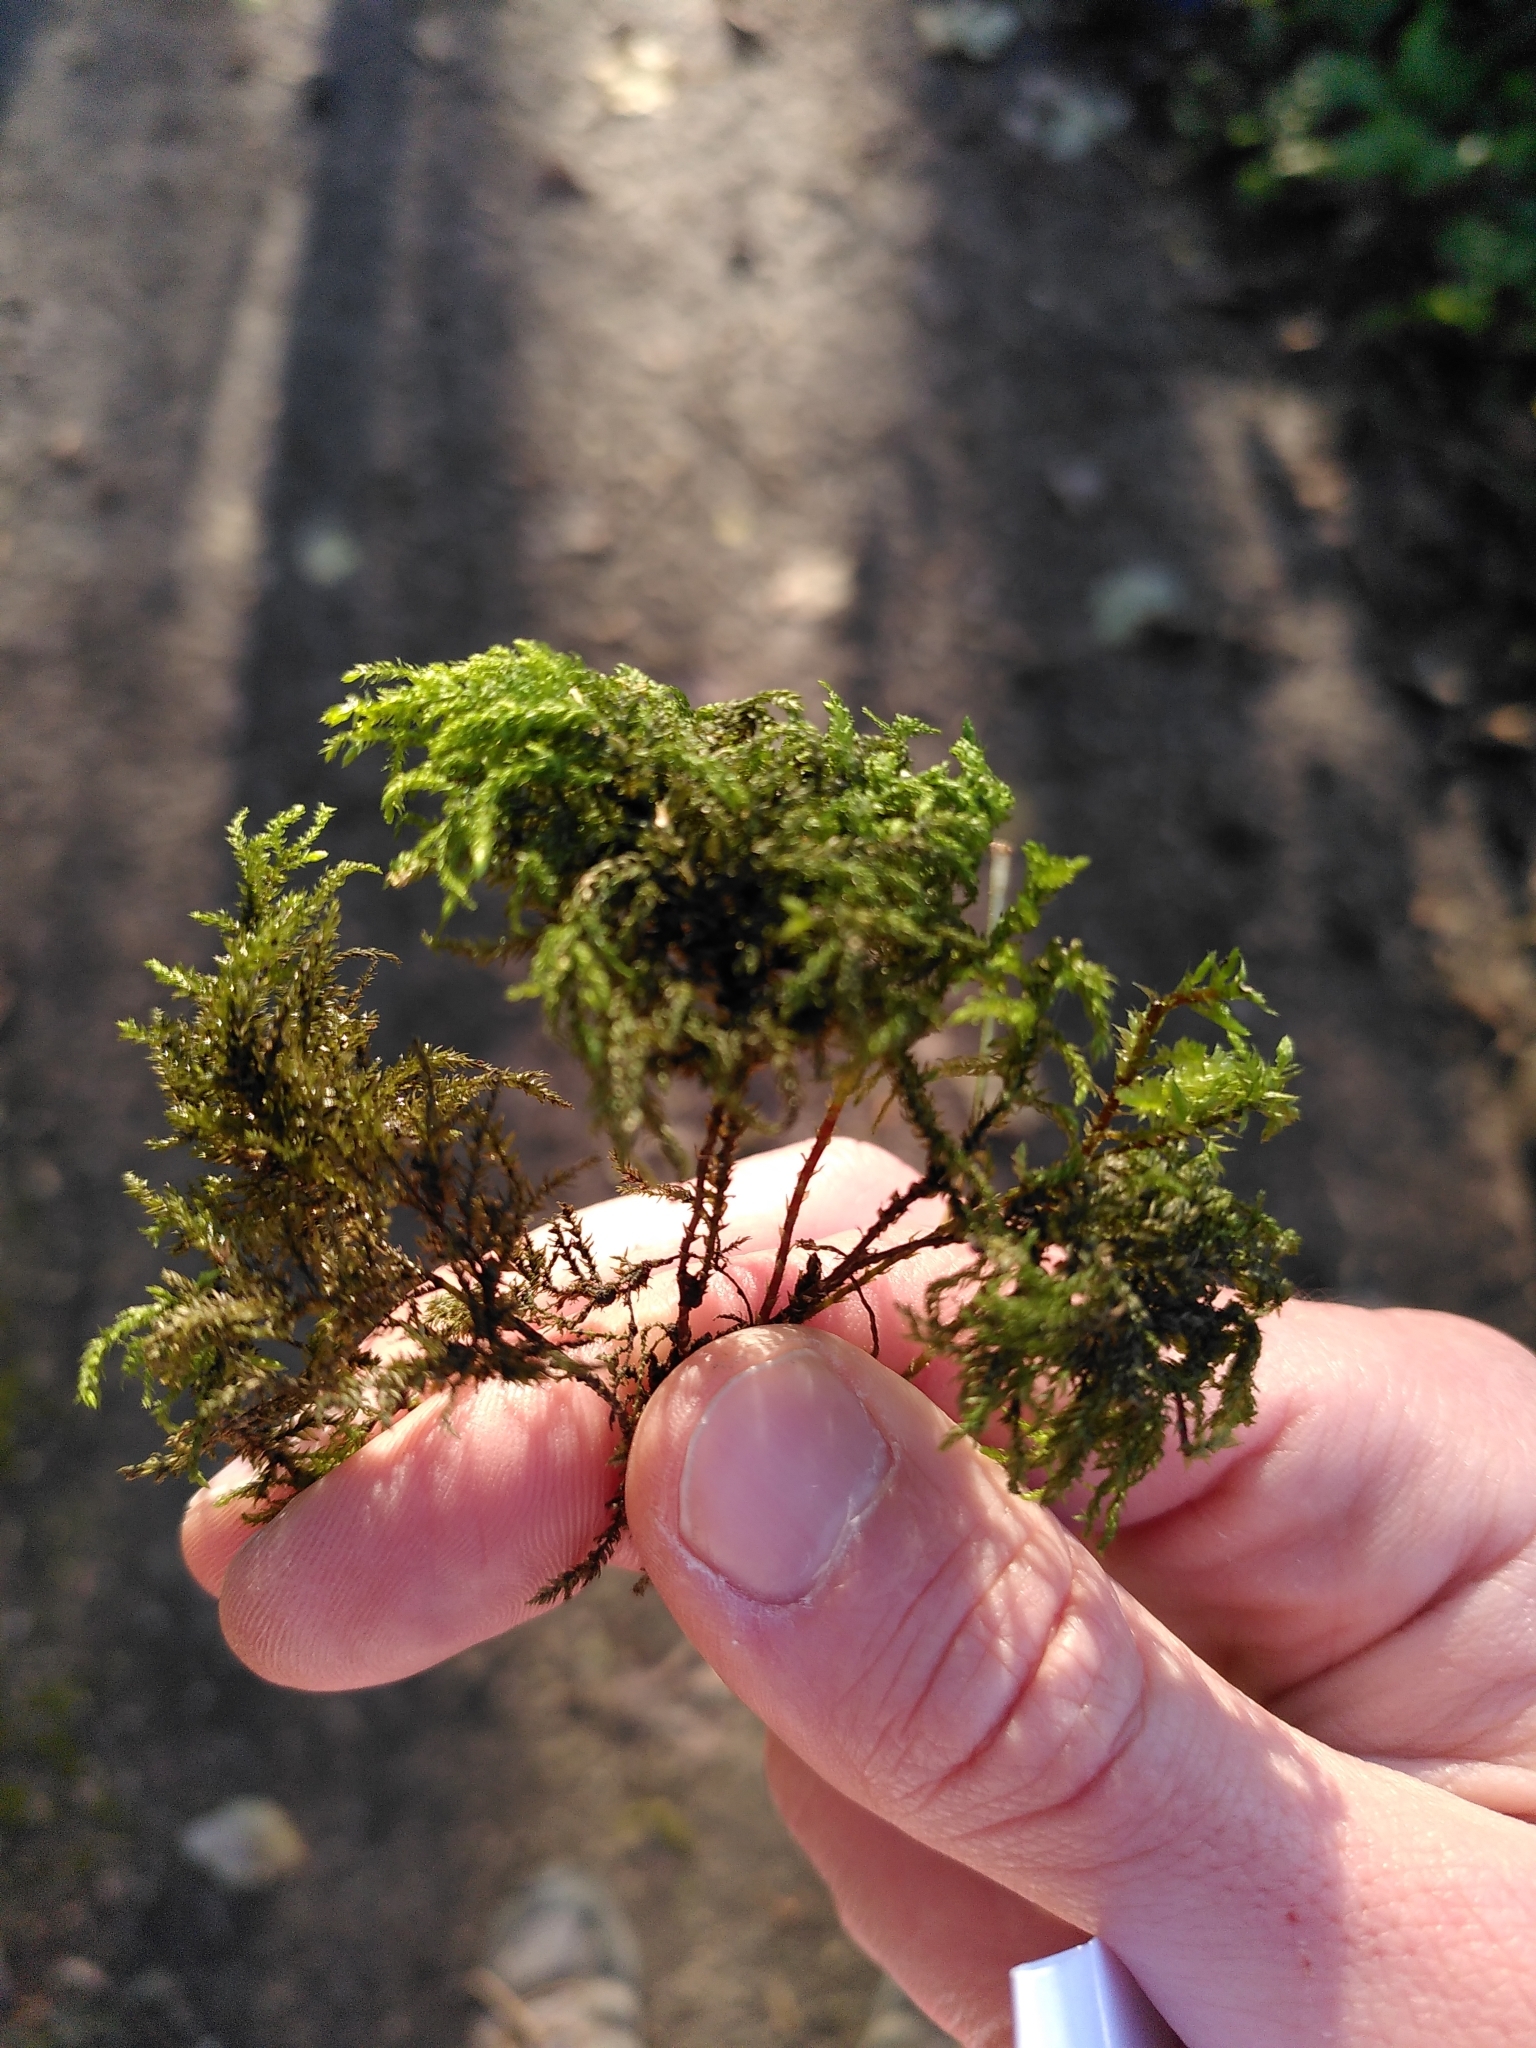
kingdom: Plantae
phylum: Bryophyta
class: Bryopsida
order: Hypnales
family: Neckeraceae
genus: Thamnobryum
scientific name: Thamnobryum alopecurum
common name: Fox-tail feather-moss
